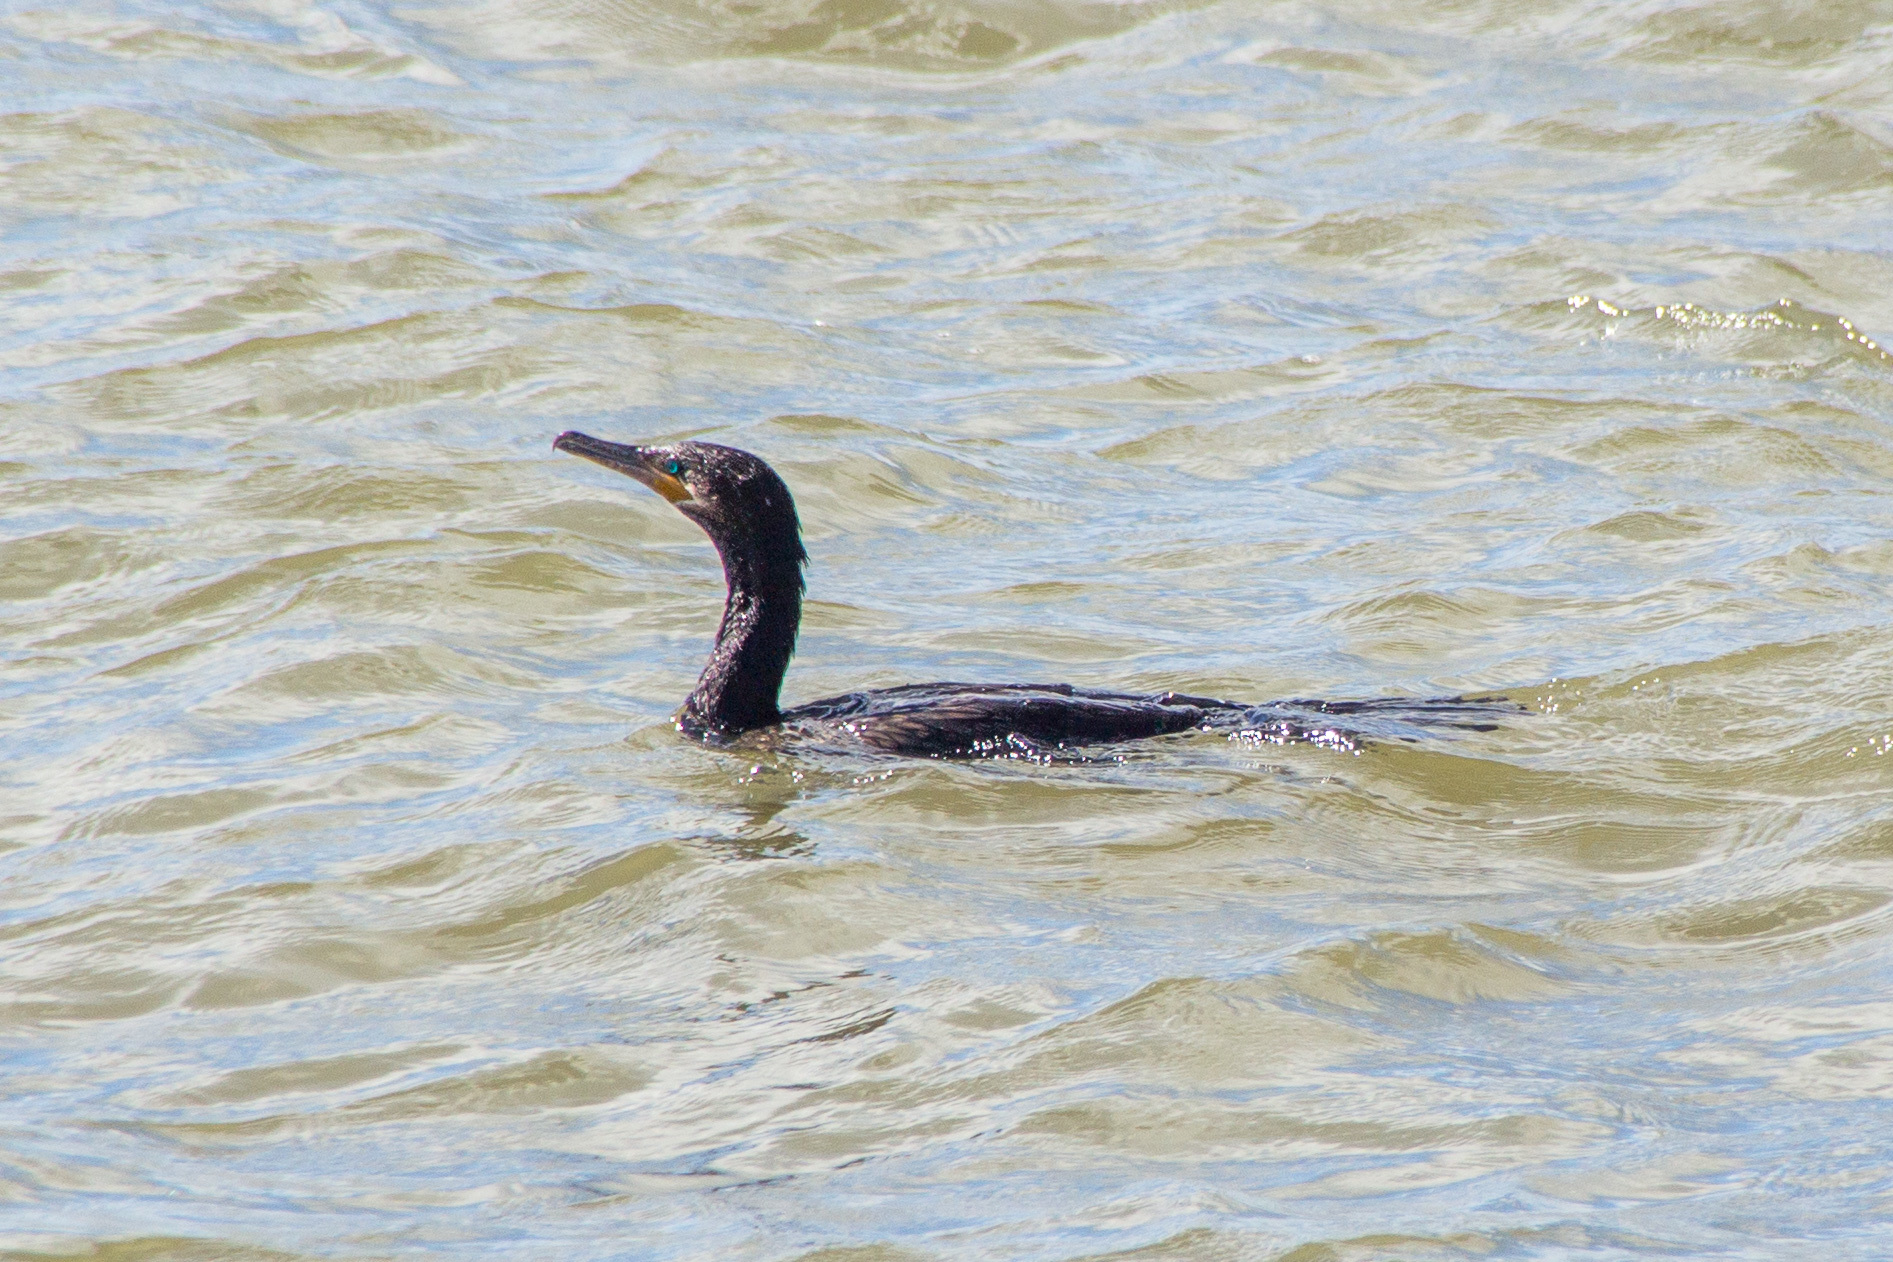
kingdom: Animalia
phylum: Chordata
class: Aves
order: Suliformes
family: Phalacrocoracidae
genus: Phalacrocorax
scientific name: Phalacrocorax brasilianus
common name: Neotropic cormorant
